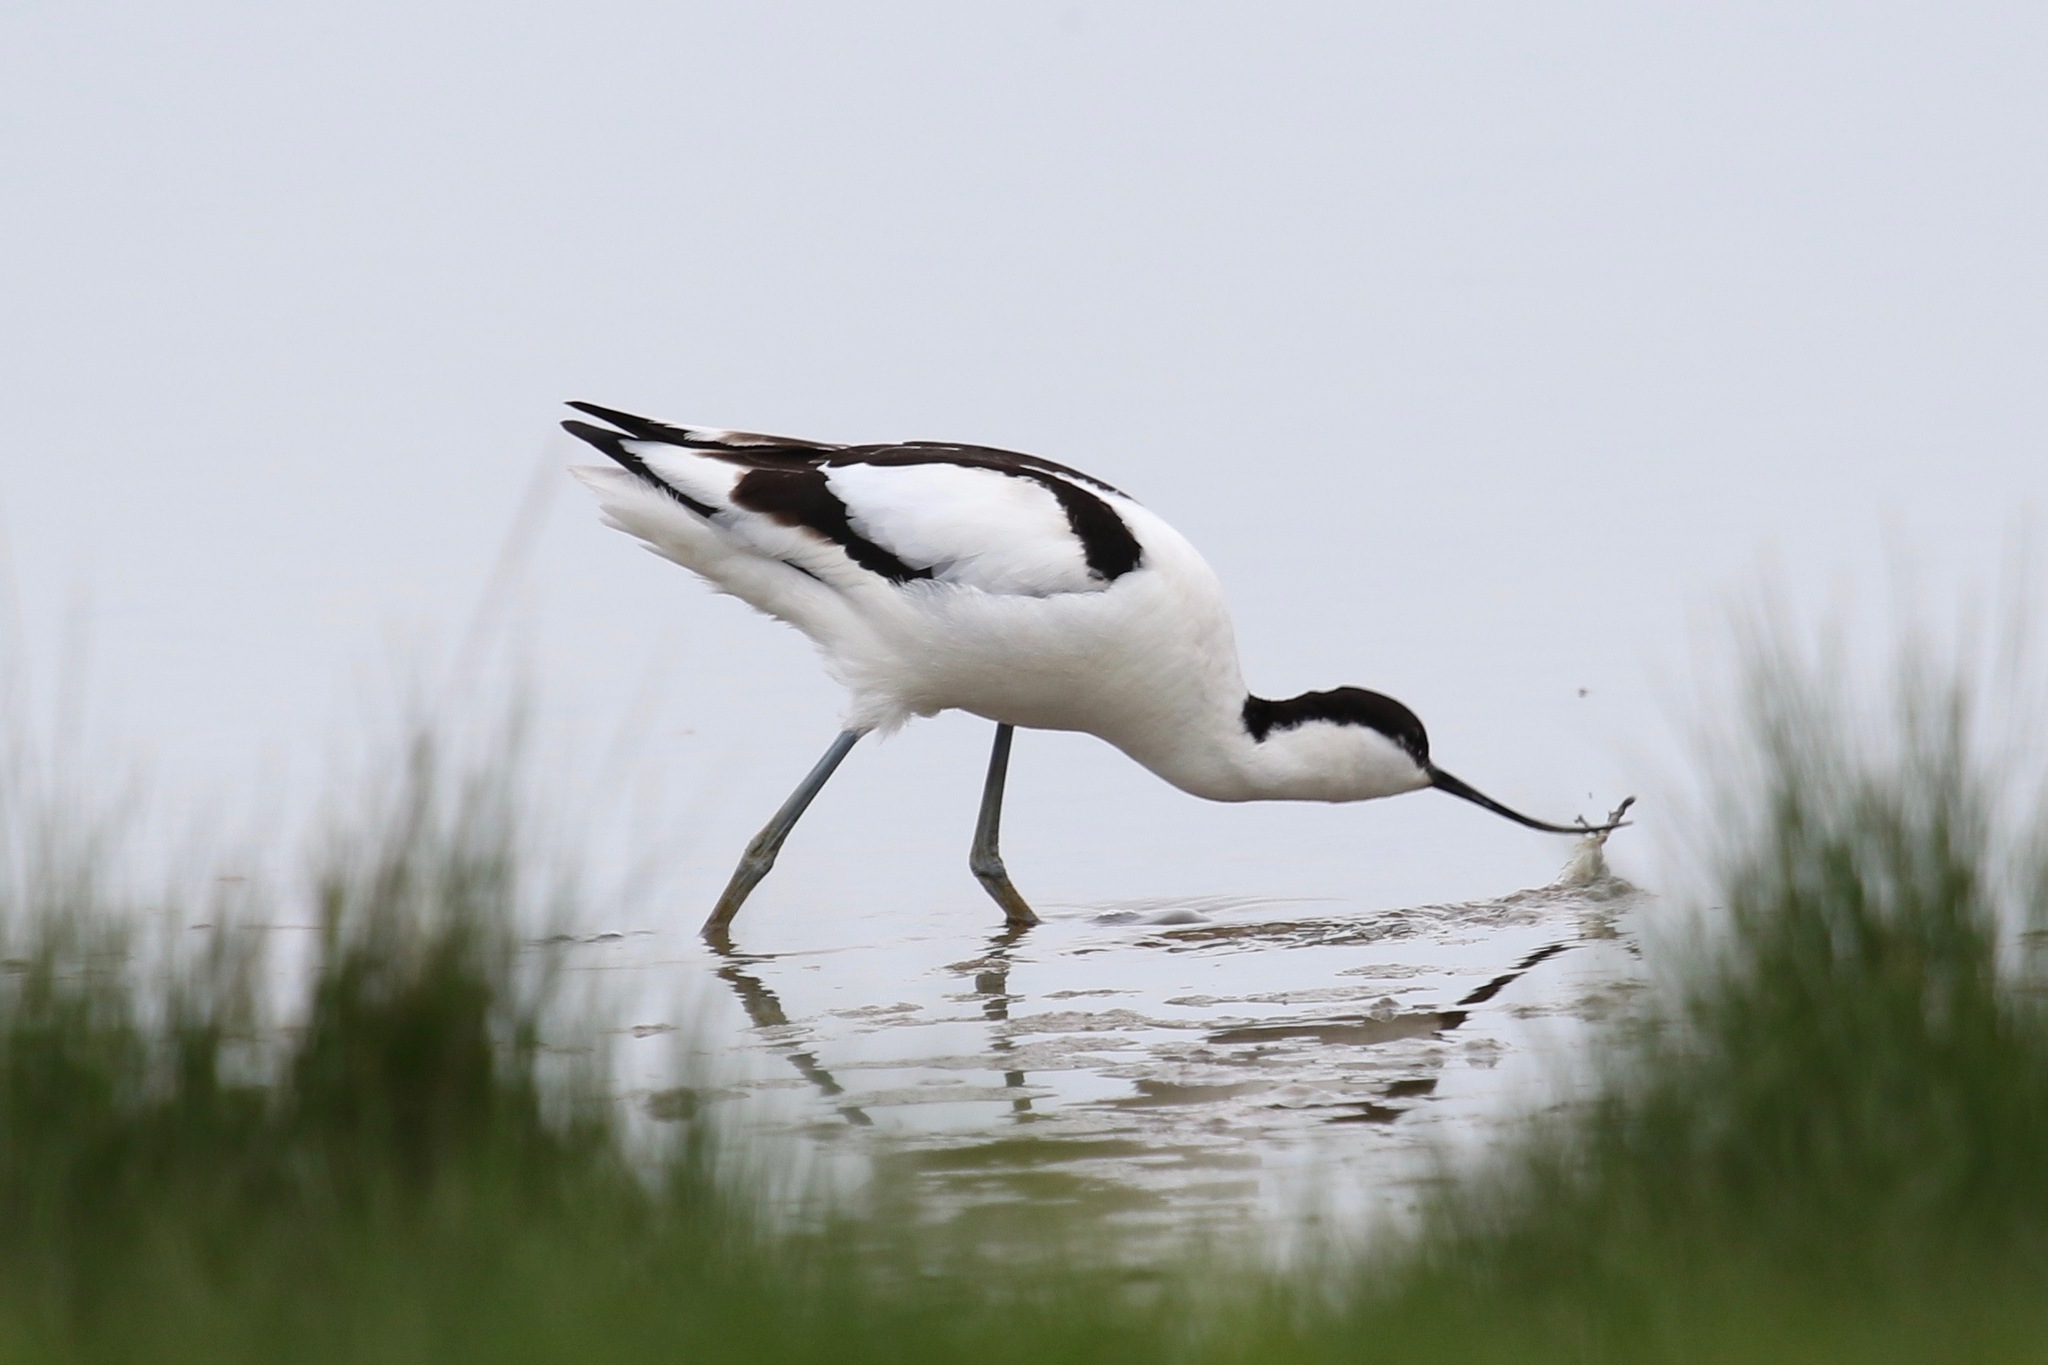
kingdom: Animalia
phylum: Chordata
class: Aves
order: Charadriiformes
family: Recurvirostridae
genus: Recurvirostra
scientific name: Recurvirostra avosetta
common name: Pied avocet
